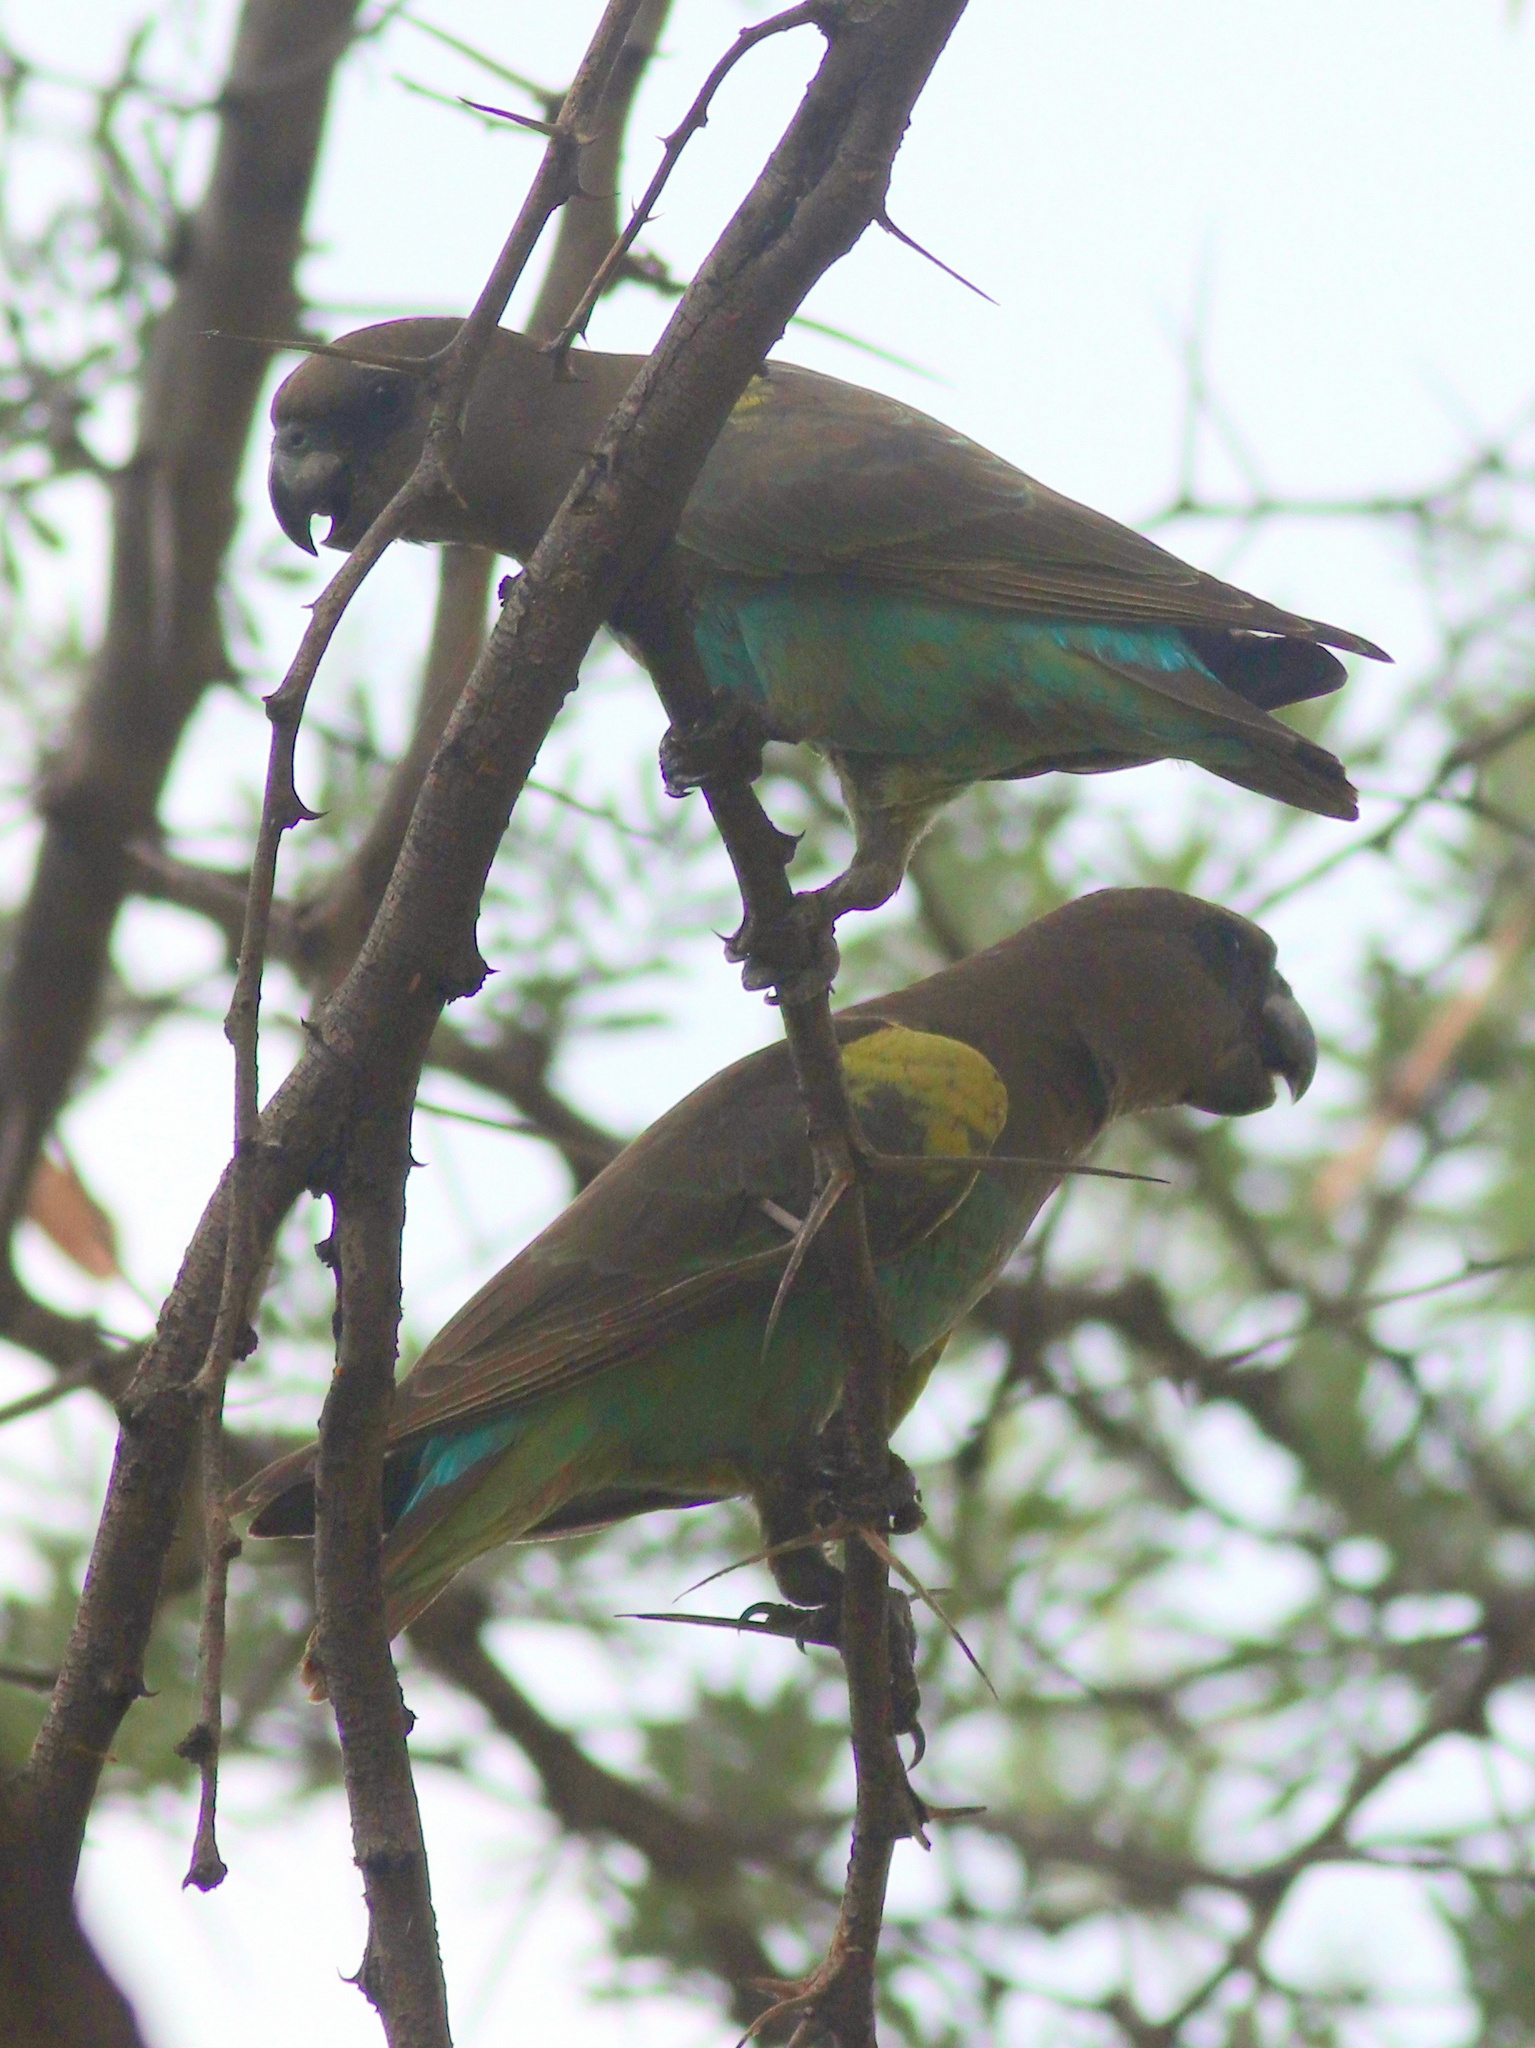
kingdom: Animalia
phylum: Chordata
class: Aves
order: Psittaciformes
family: Psittacidae
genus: Poicephalus
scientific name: Poicephalus meyeri
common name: Meyer's parrot
